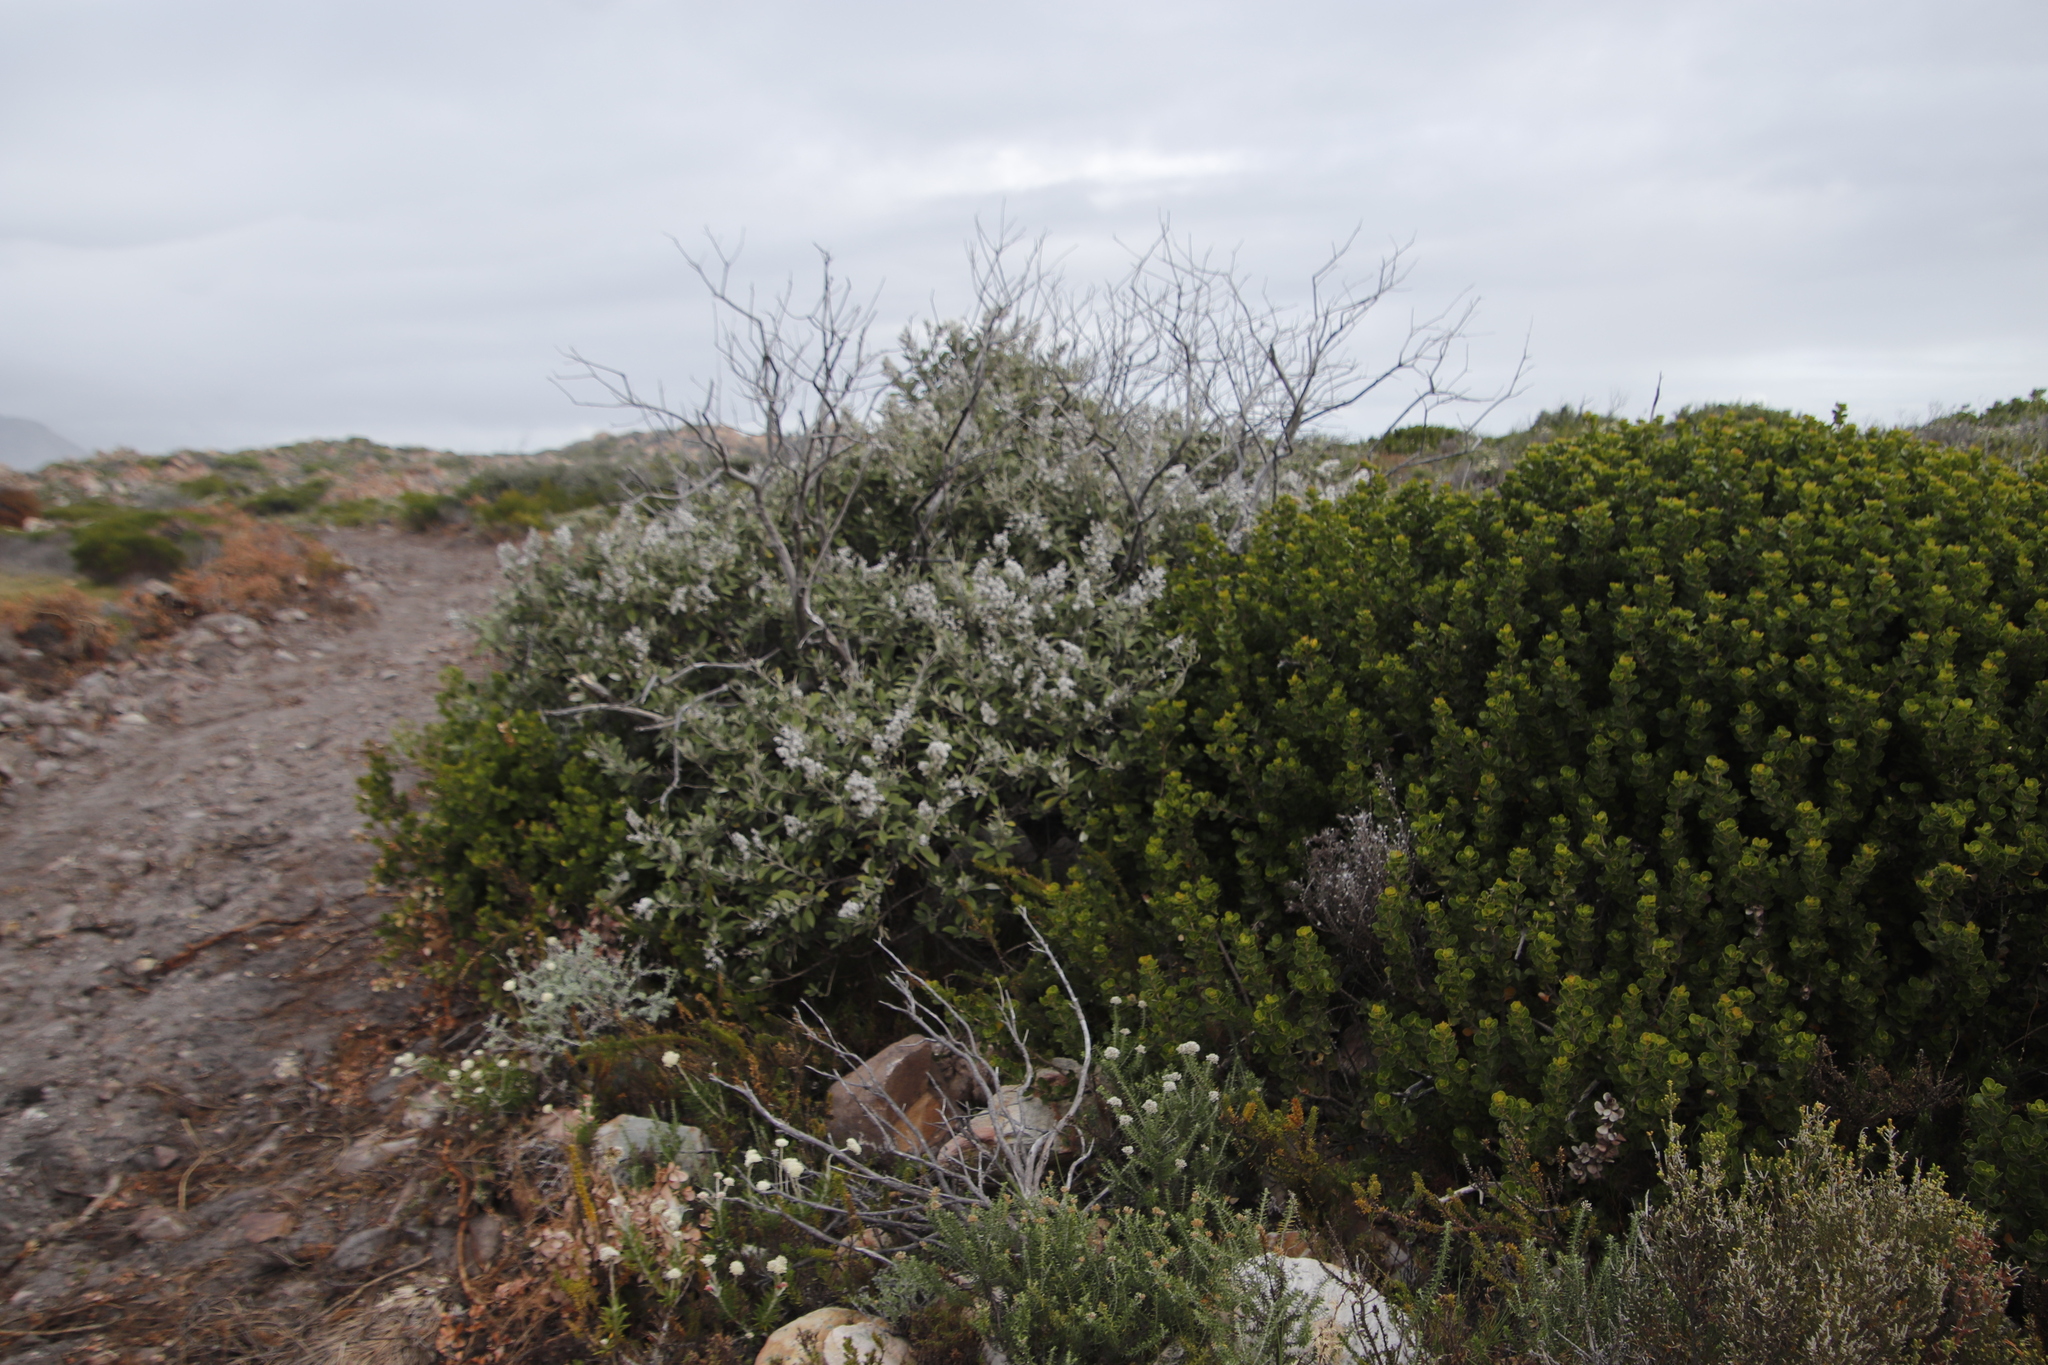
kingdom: Plantae
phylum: Tracheophyta
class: Magnoliopsida
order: Asterales
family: Asteraceae
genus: Tarchonanthus
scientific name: Tarchonanthus littoralis
